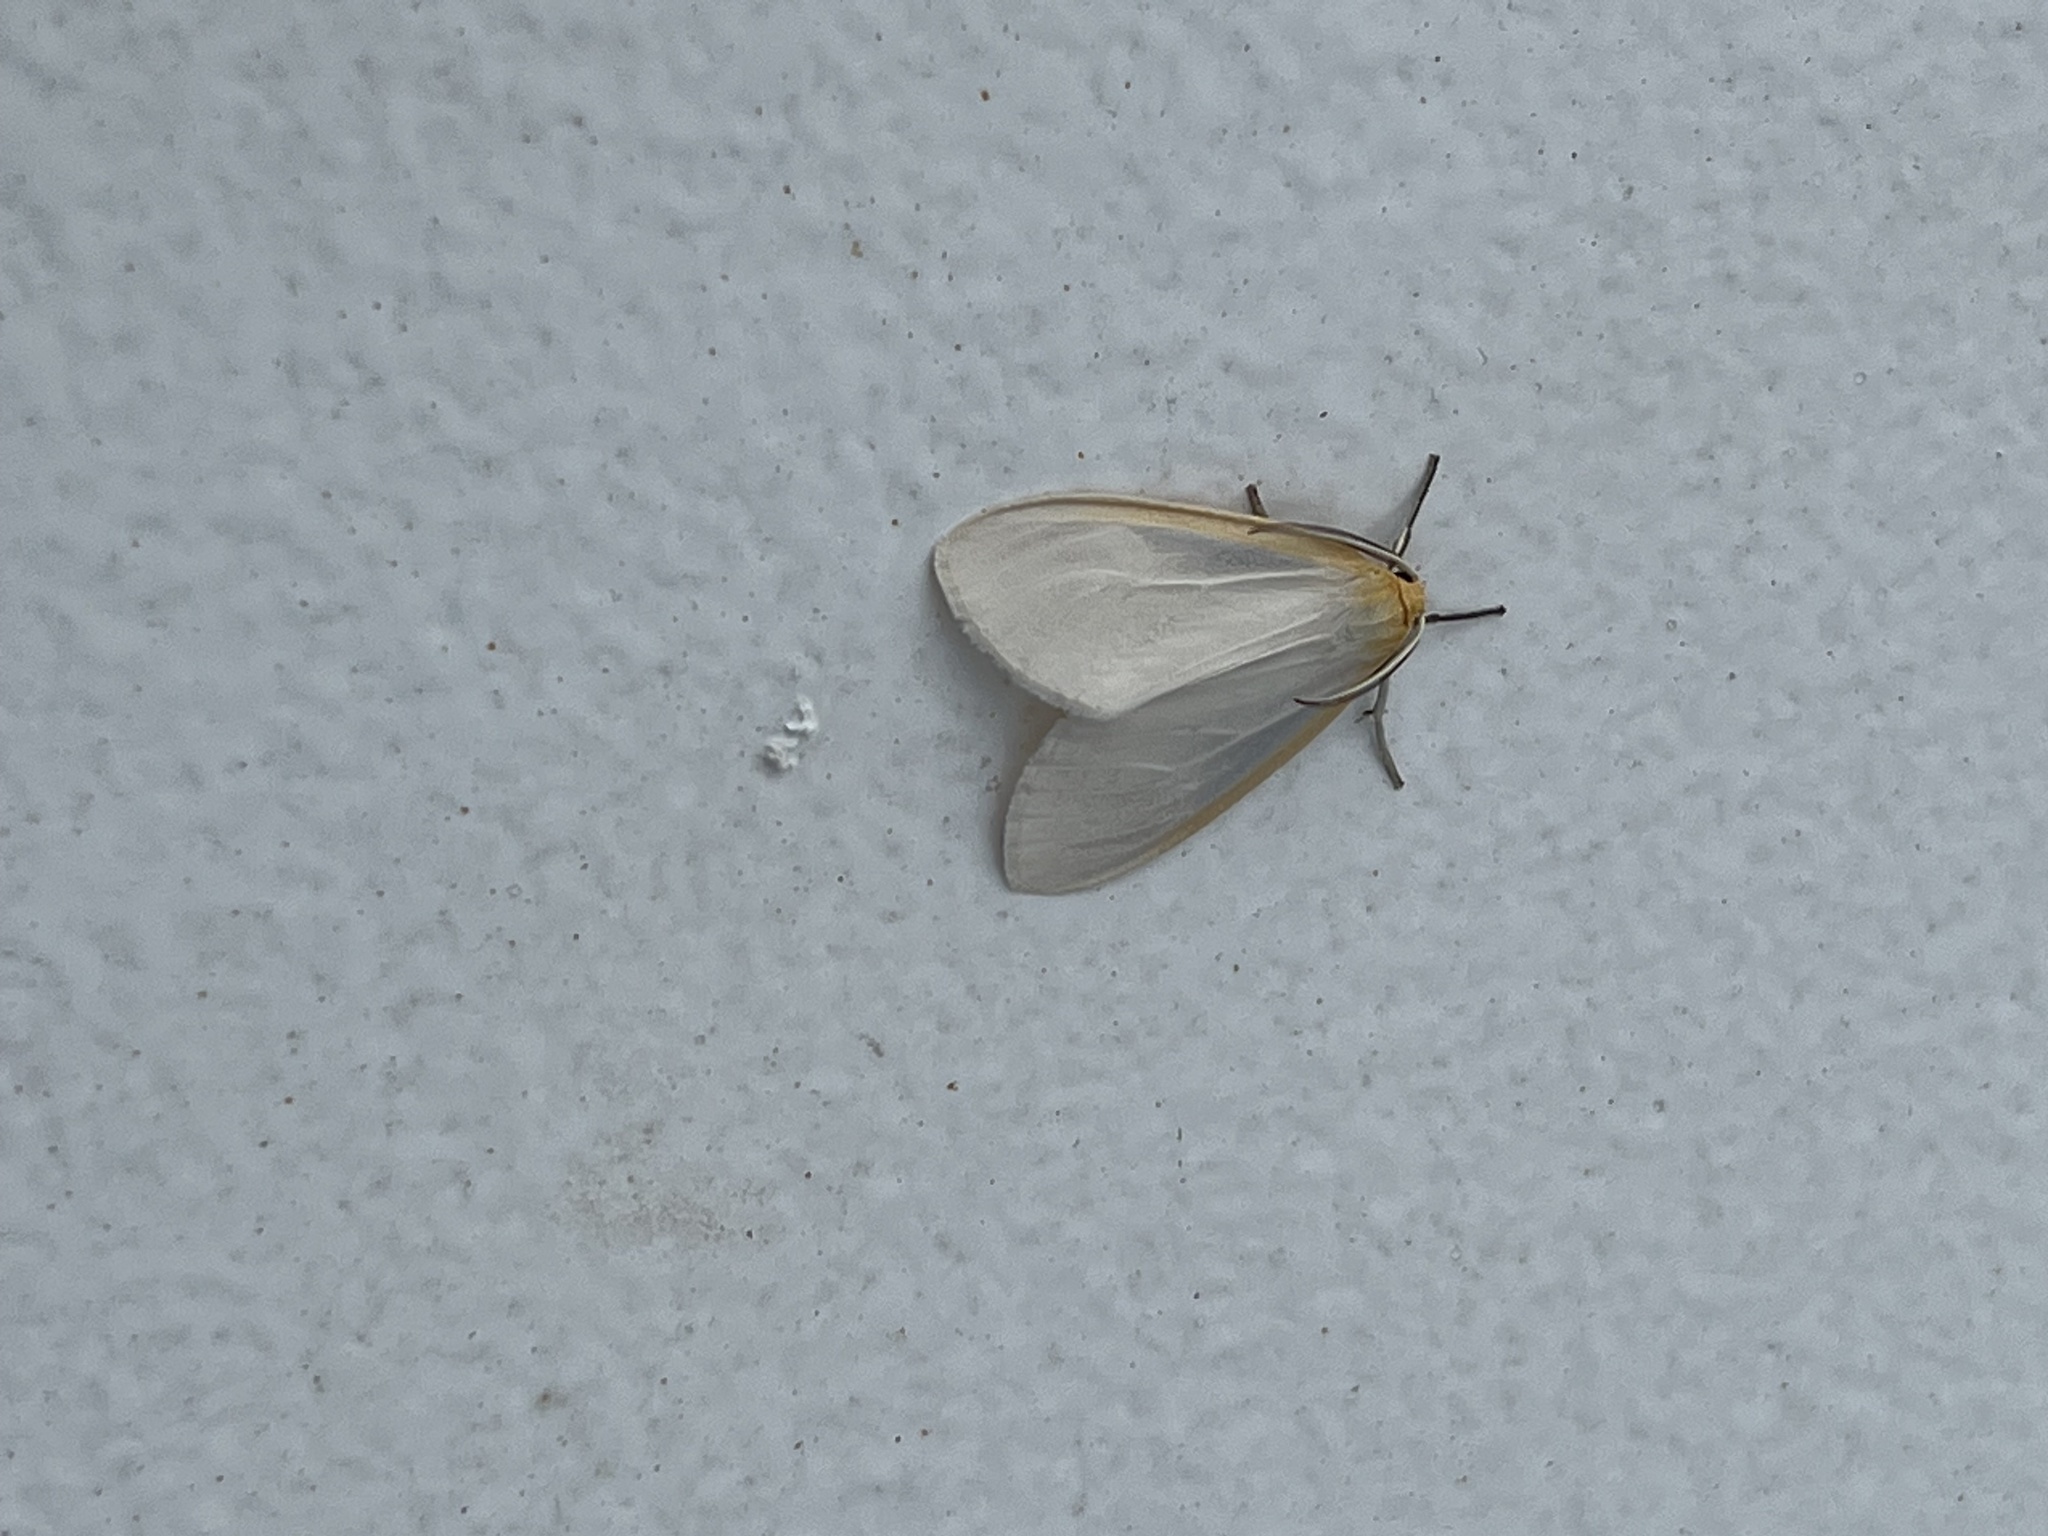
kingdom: Animalia
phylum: Arthropoda
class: Insecta
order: Lepidoptera
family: Erebidae
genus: Cycnia
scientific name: Cycnia tenera
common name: Delicate cycnia moth
